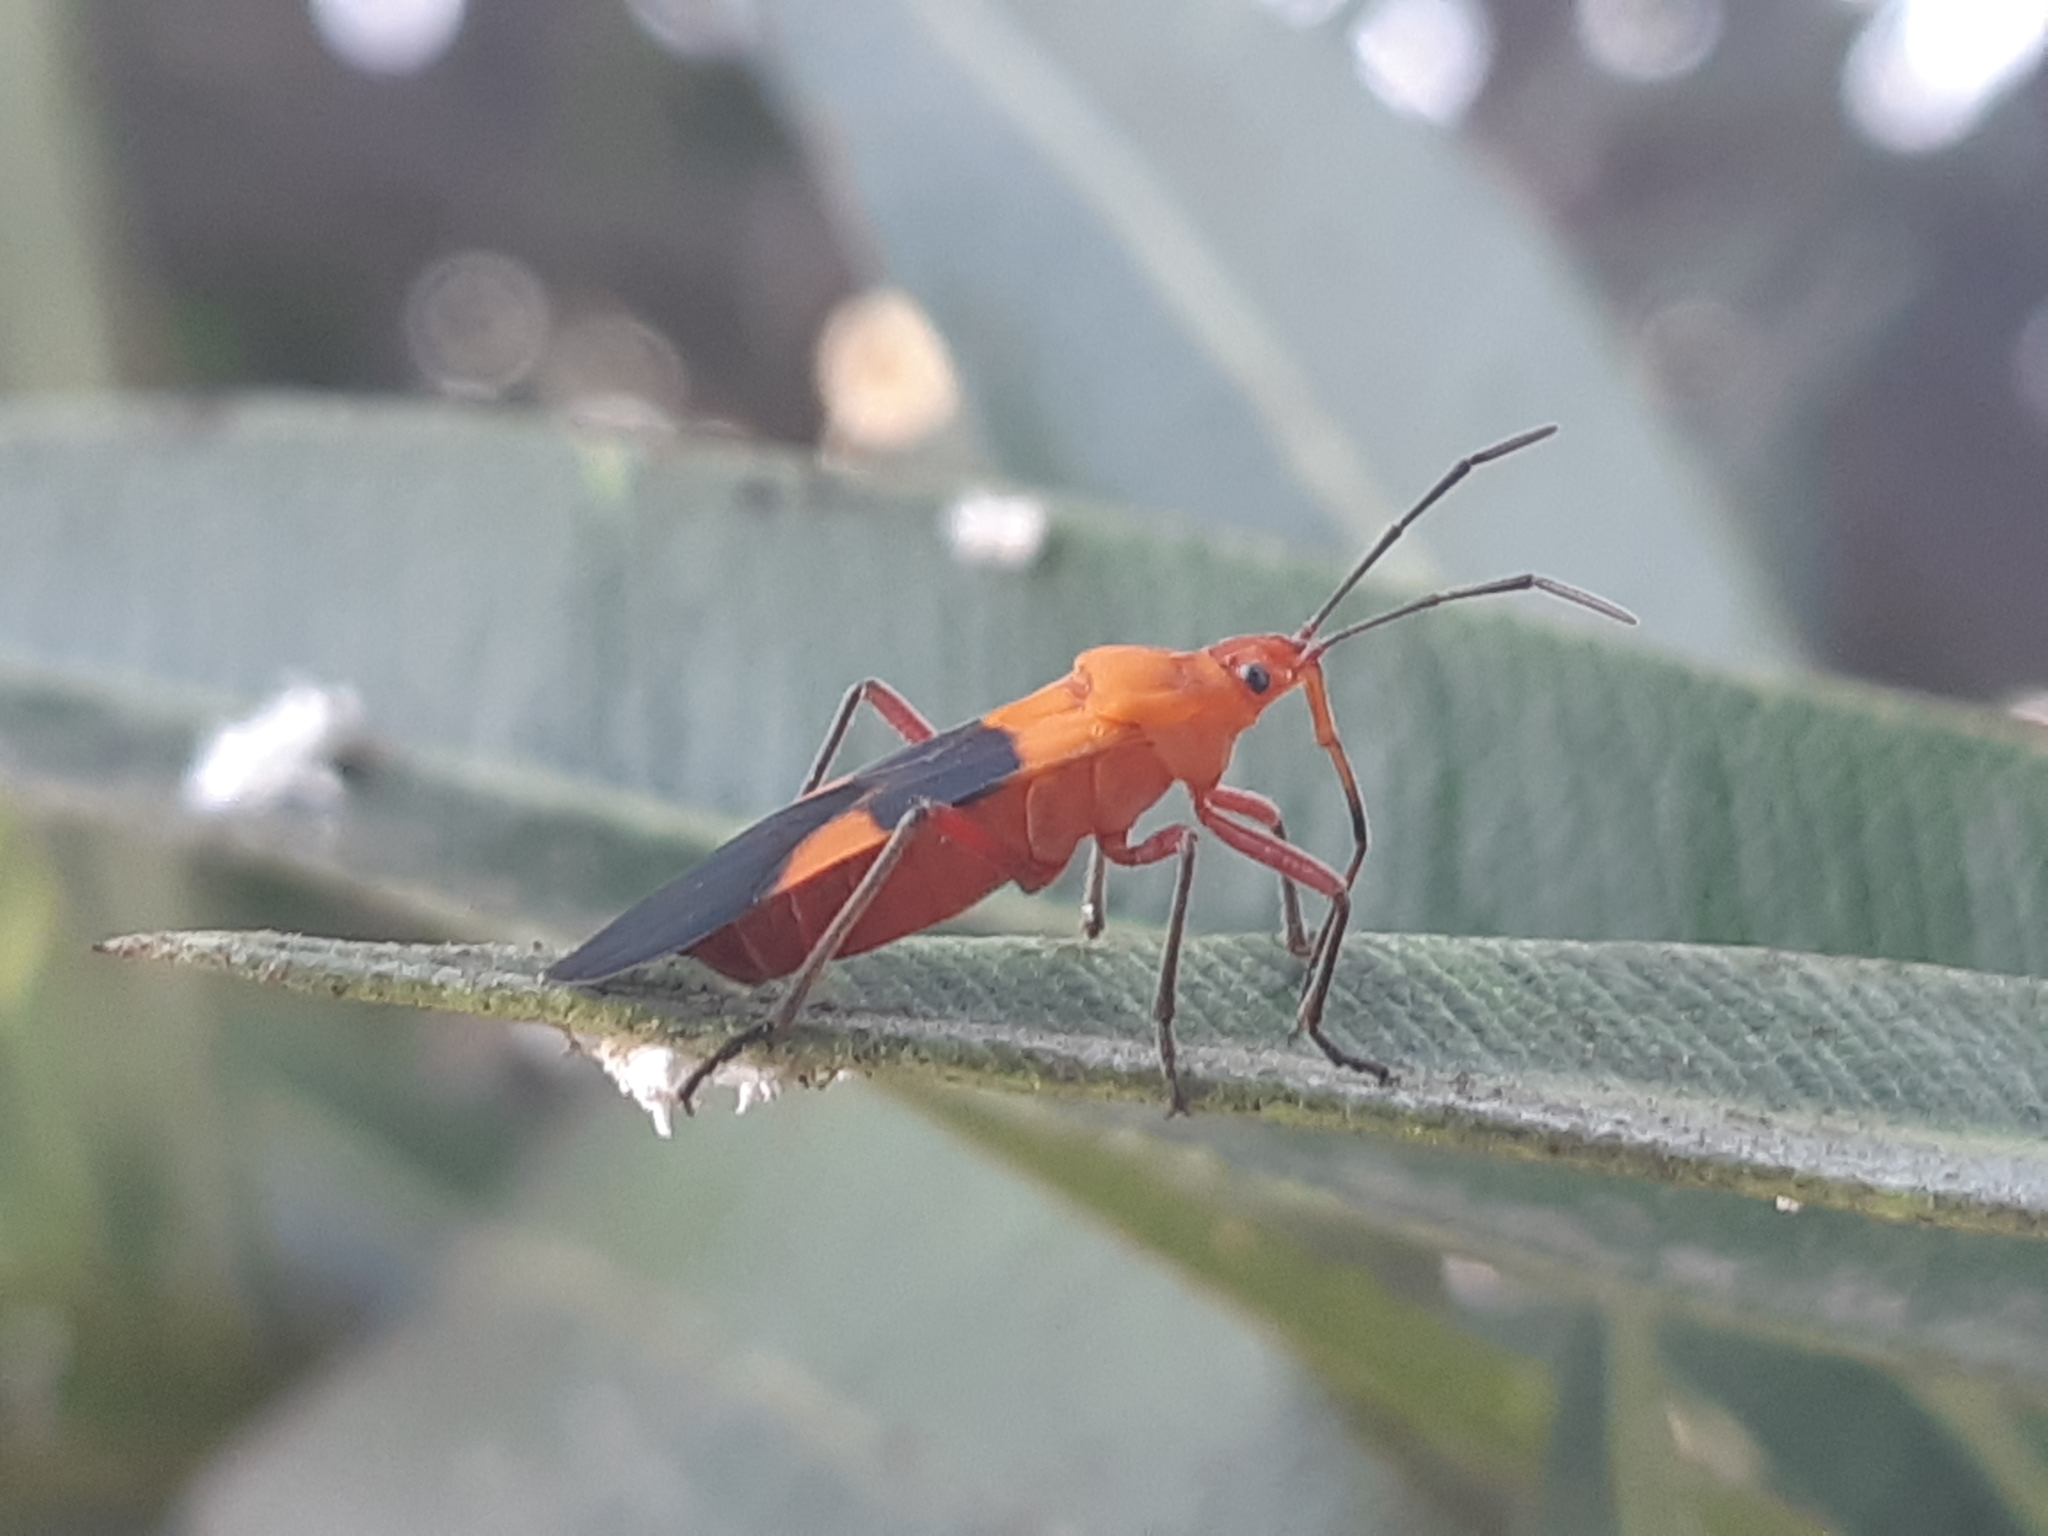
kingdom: Animalia
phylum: Arthropoda
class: Insecta
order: Hemiptera
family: Lygaeidae
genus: Oncopeltus
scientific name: Oncopeltus zonatus
